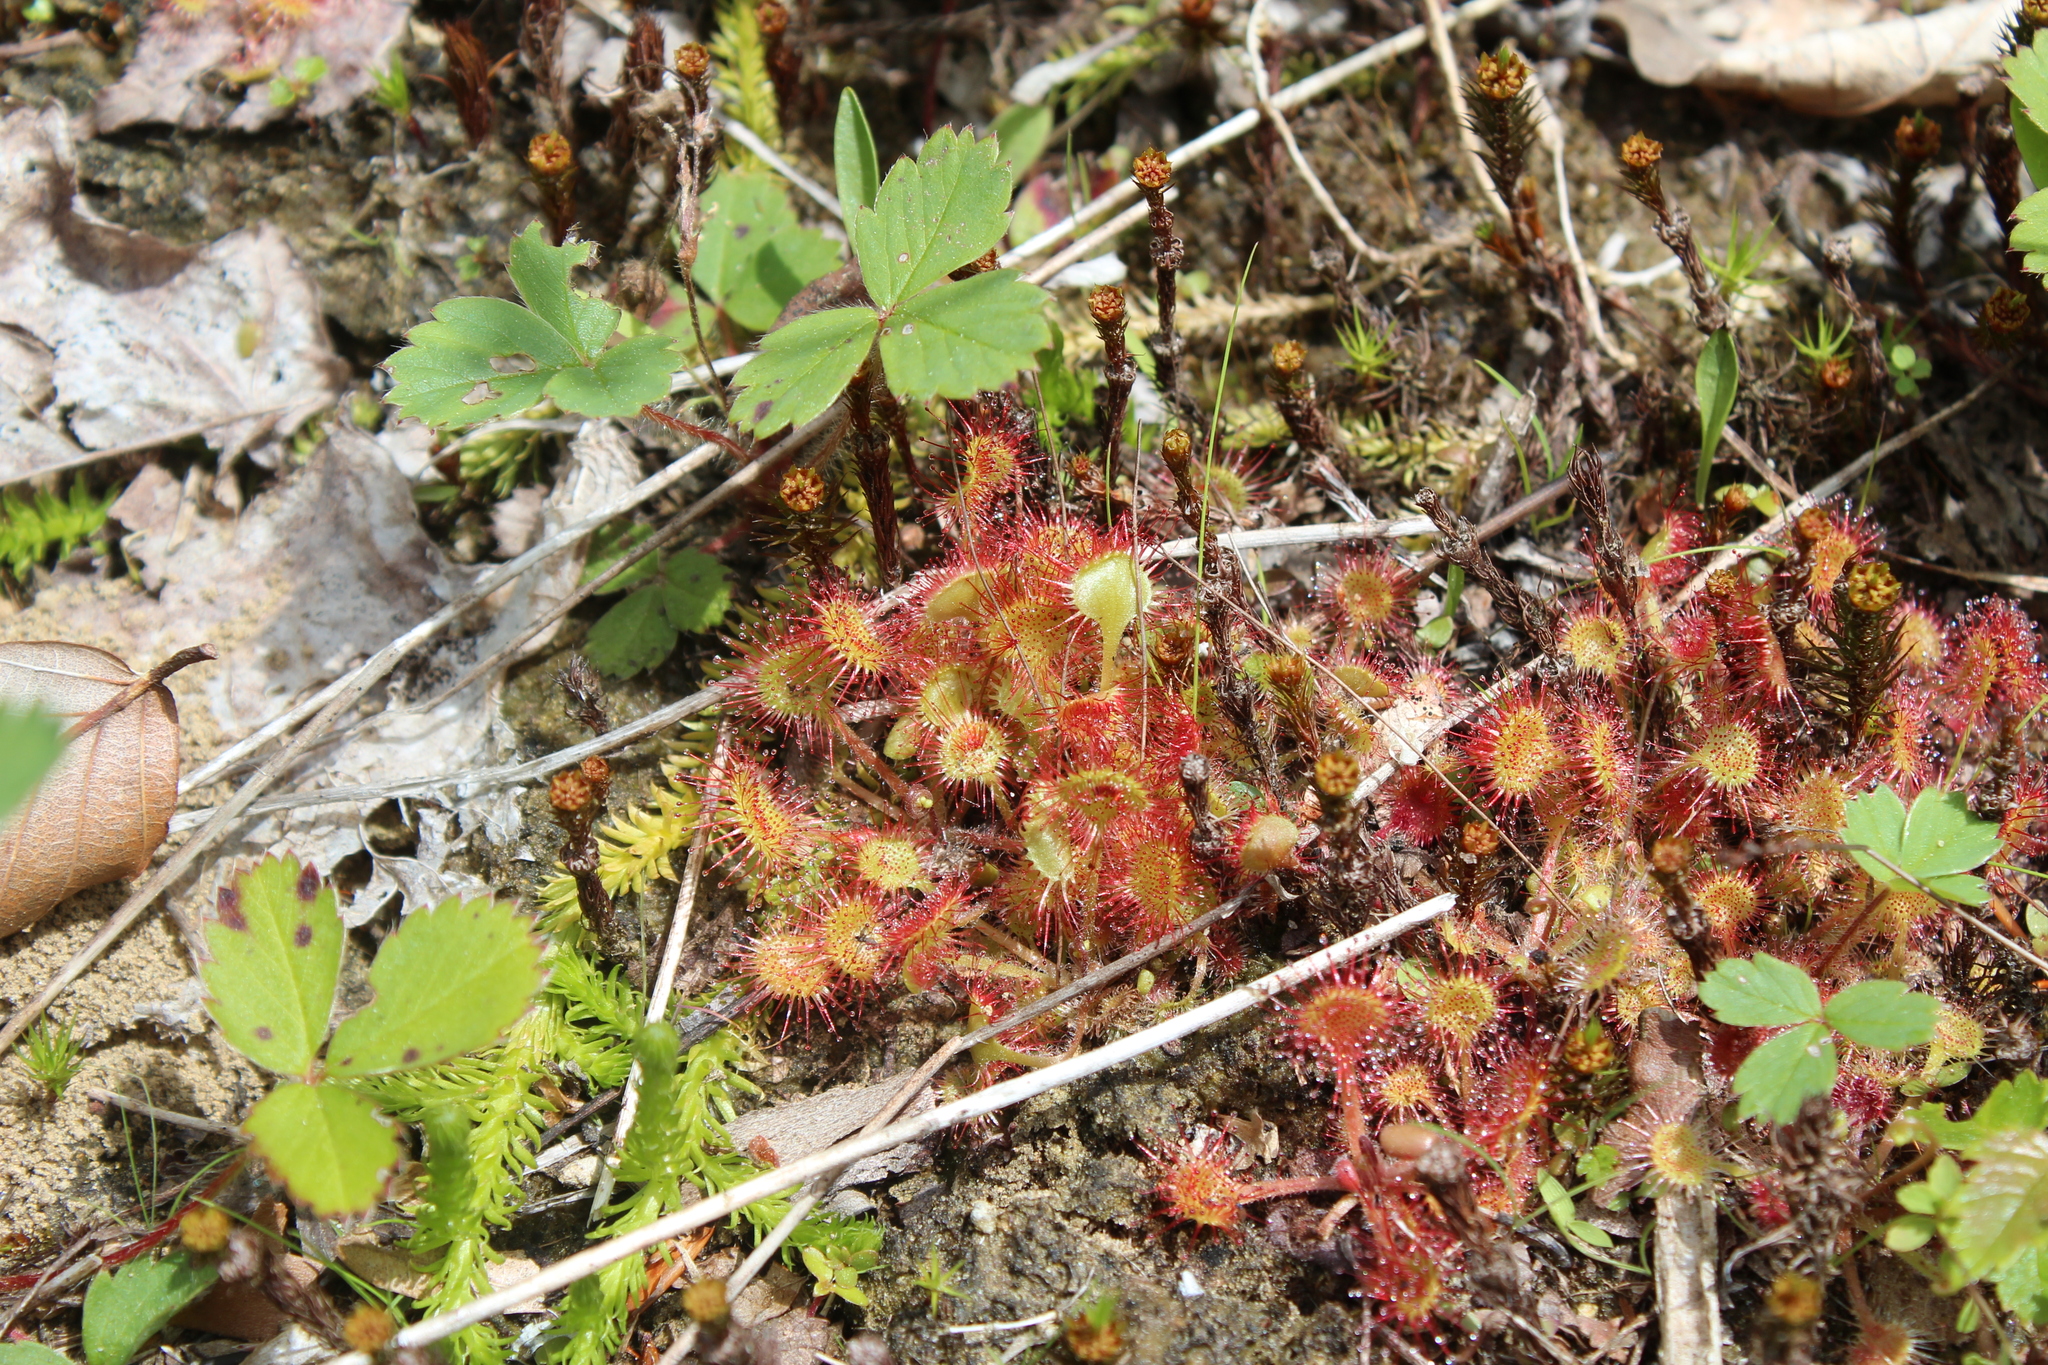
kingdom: Plantae
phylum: Tracheophyta
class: Magnoliopsida
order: Caryophyllales
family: Droseraceae
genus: Drosera
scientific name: Drosera rotundifolia
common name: Round-leaved sundew
